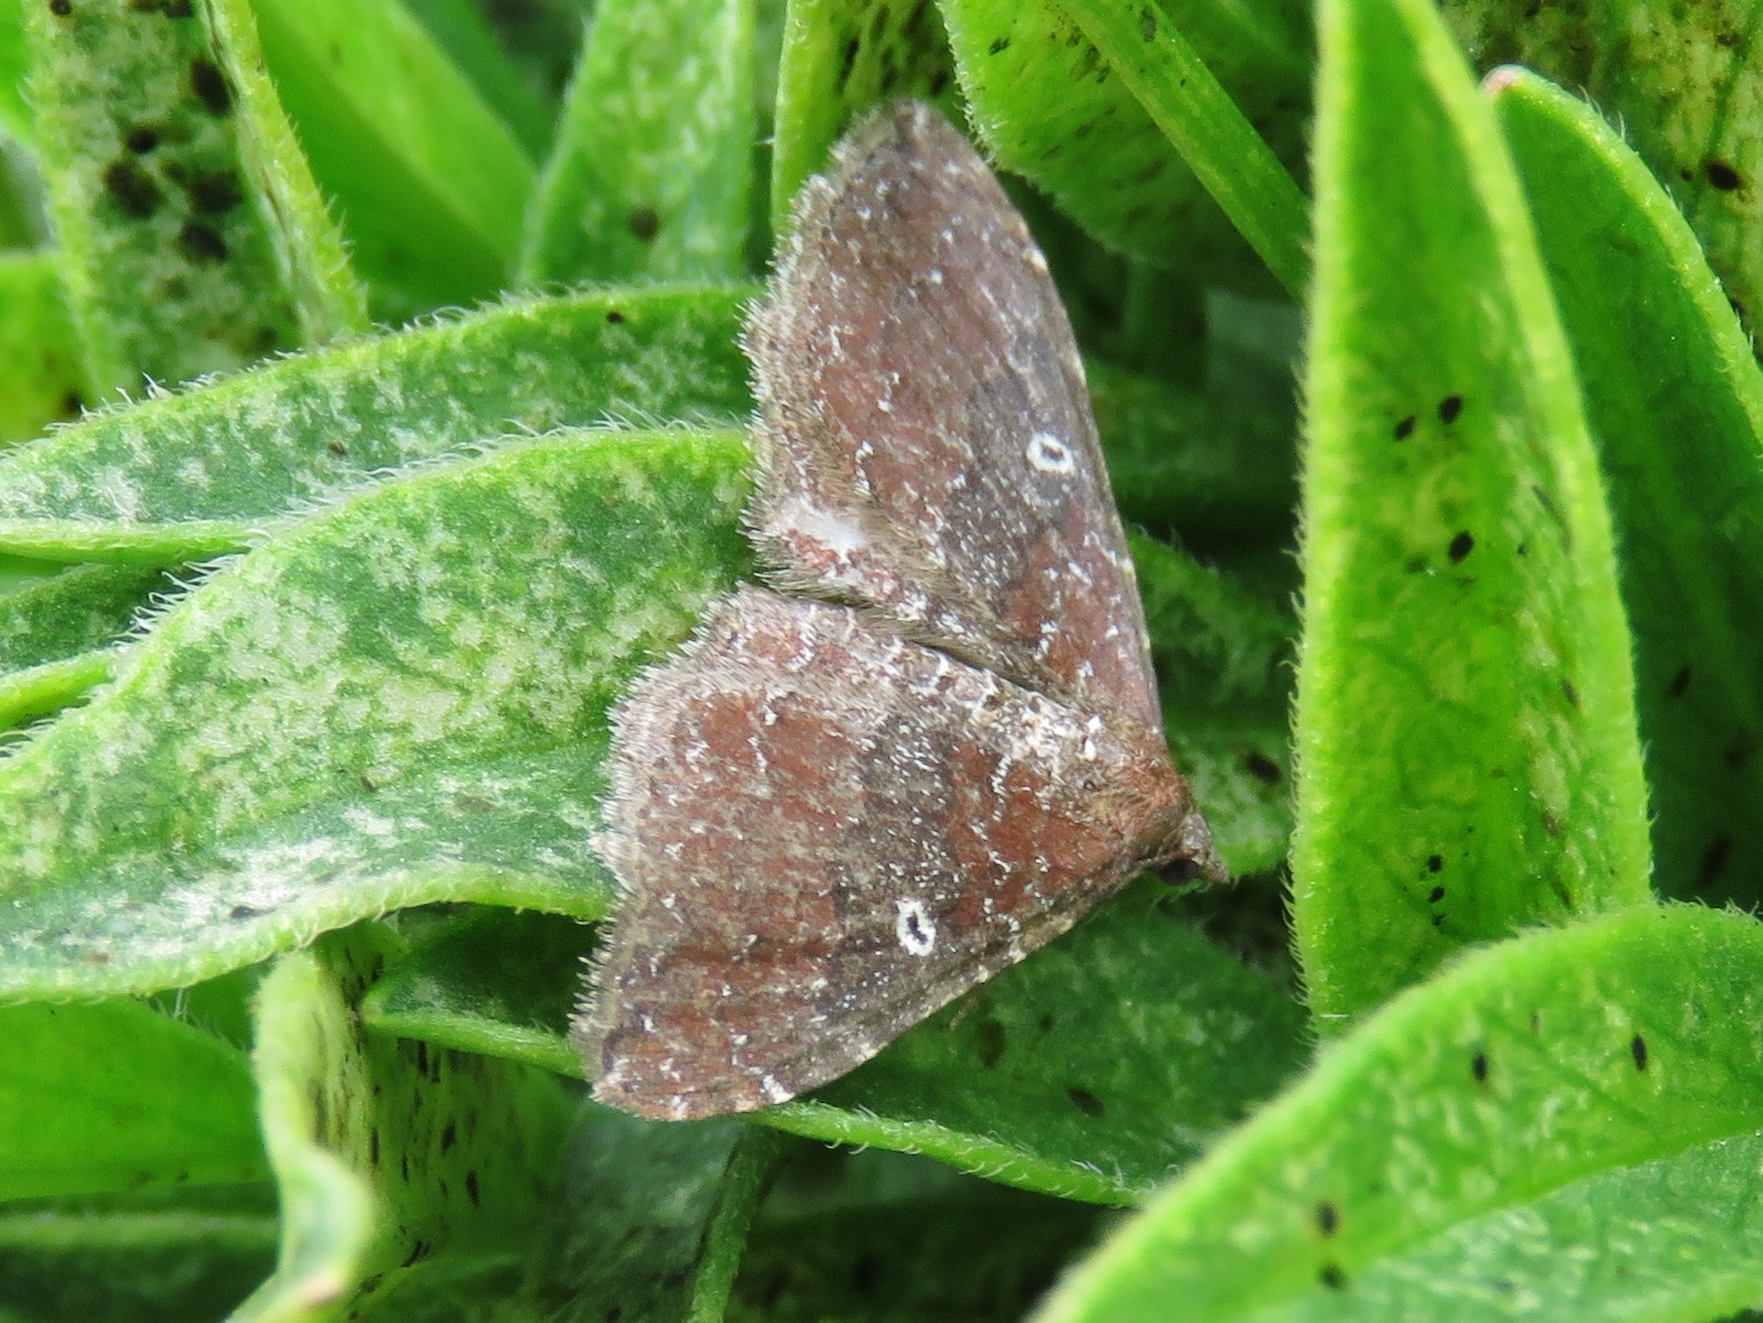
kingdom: Animalia
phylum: Arthropoda
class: Insecta
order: Lepidoptera
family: Geometridae
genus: Orthonama
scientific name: Orthonama obstipata
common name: The gem
